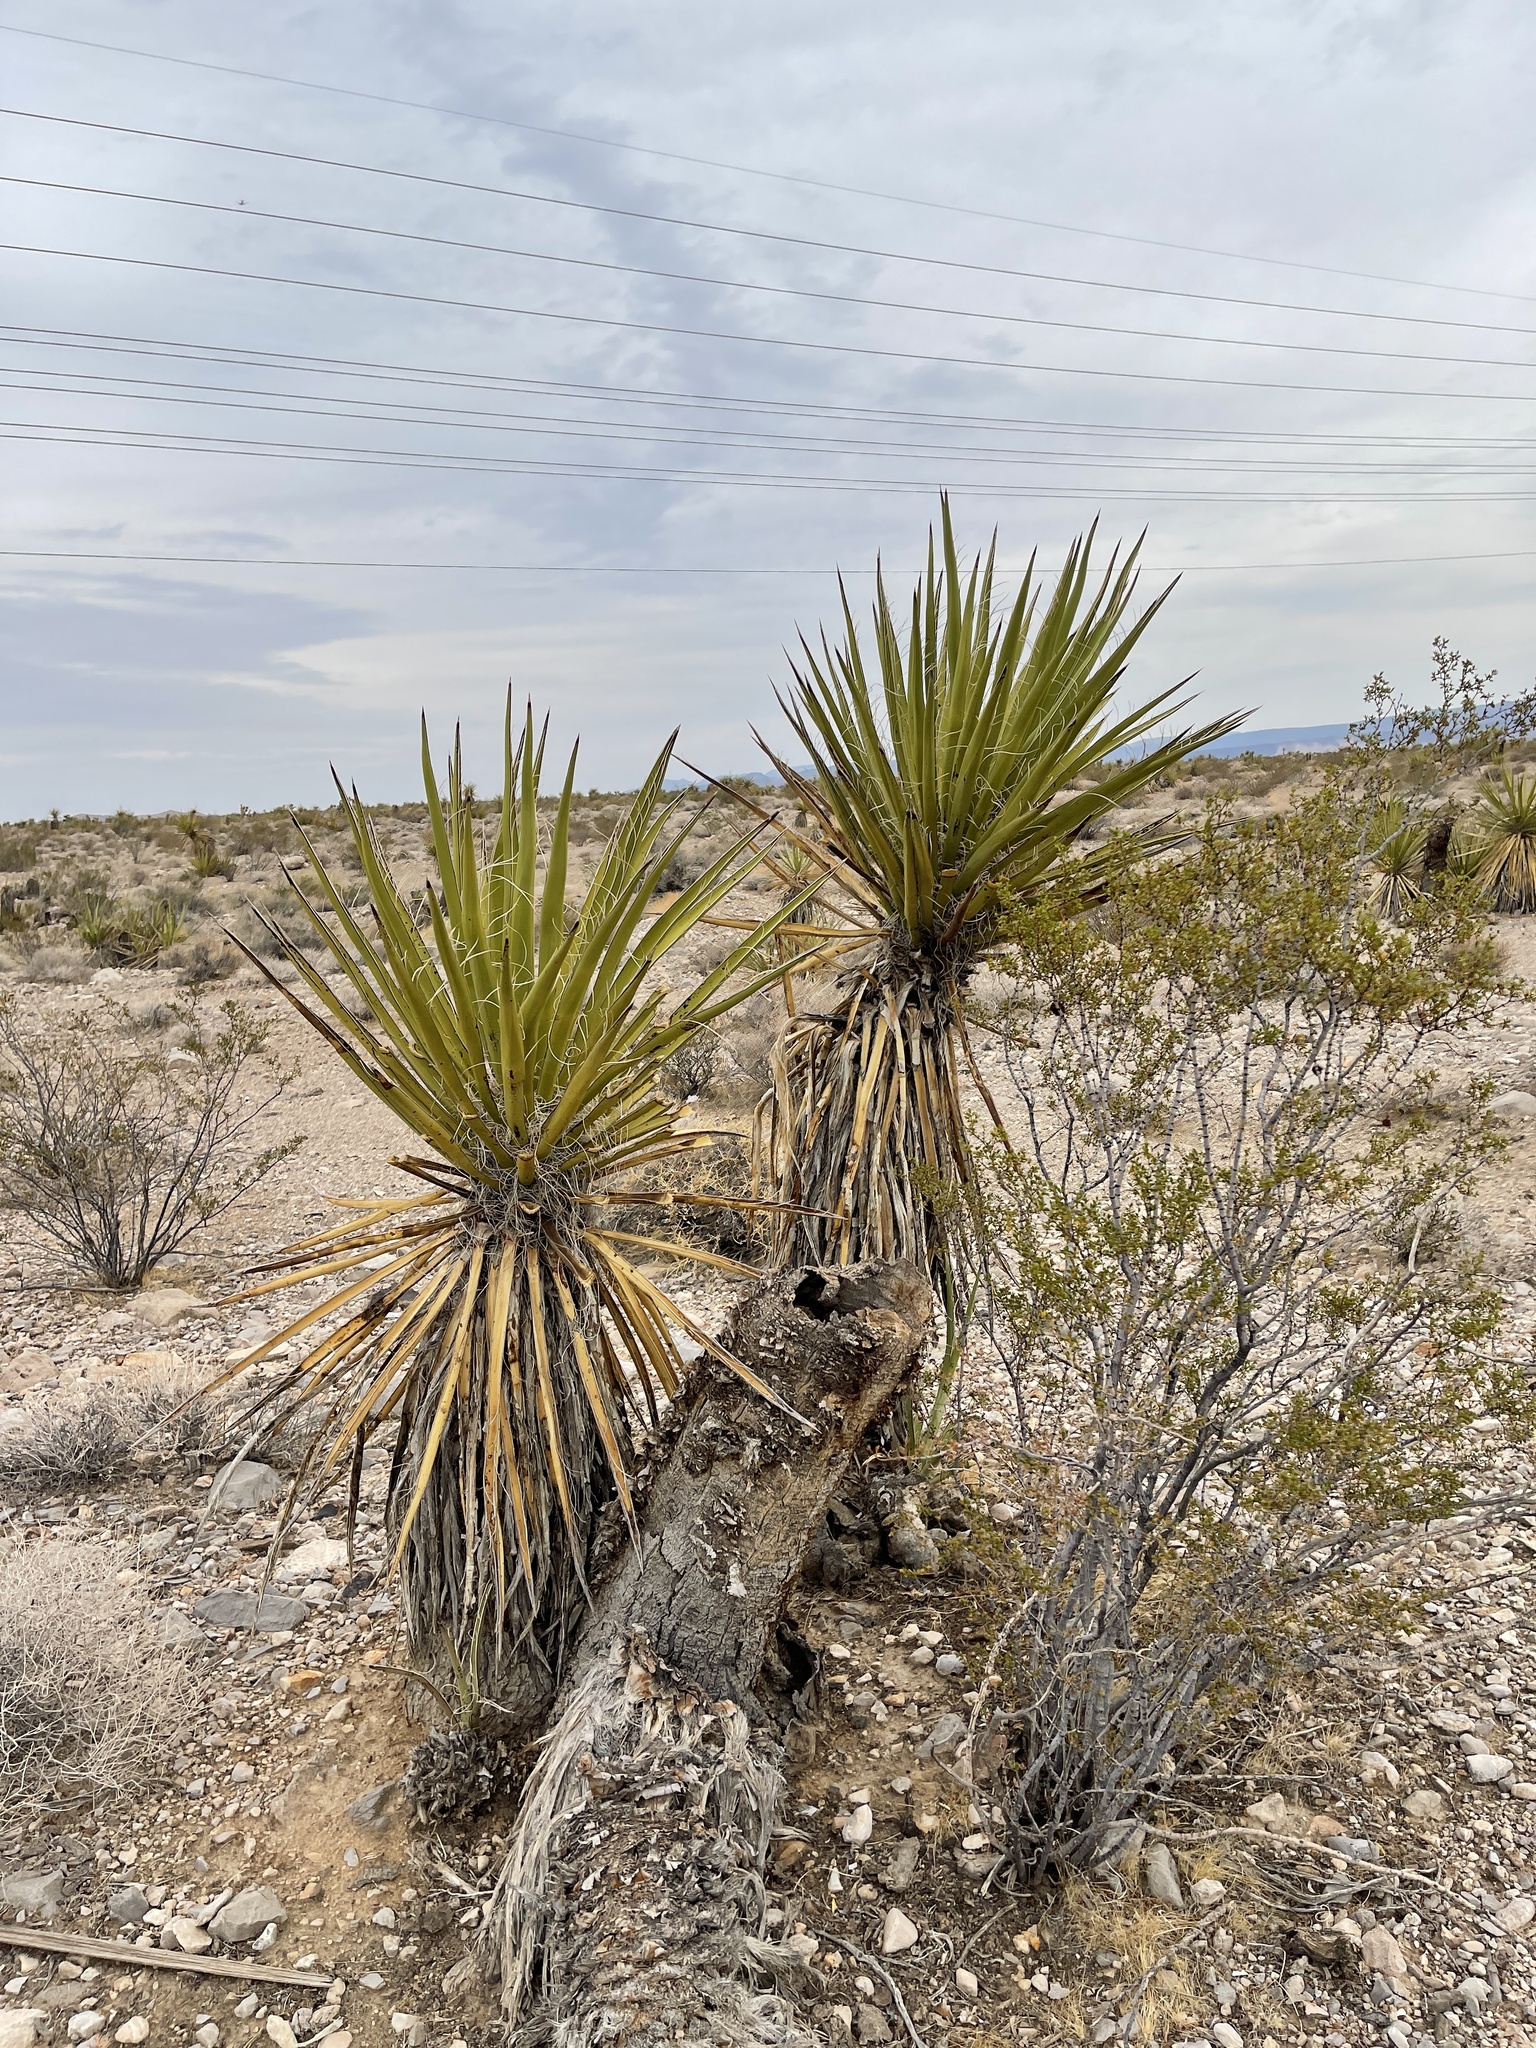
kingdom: Plantae
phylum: Tracheophyta
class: Liliopsida
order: Asparagales
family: Asparagaceae
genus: Yucca
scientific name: Yucca schidigera
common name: Mojave yucca
